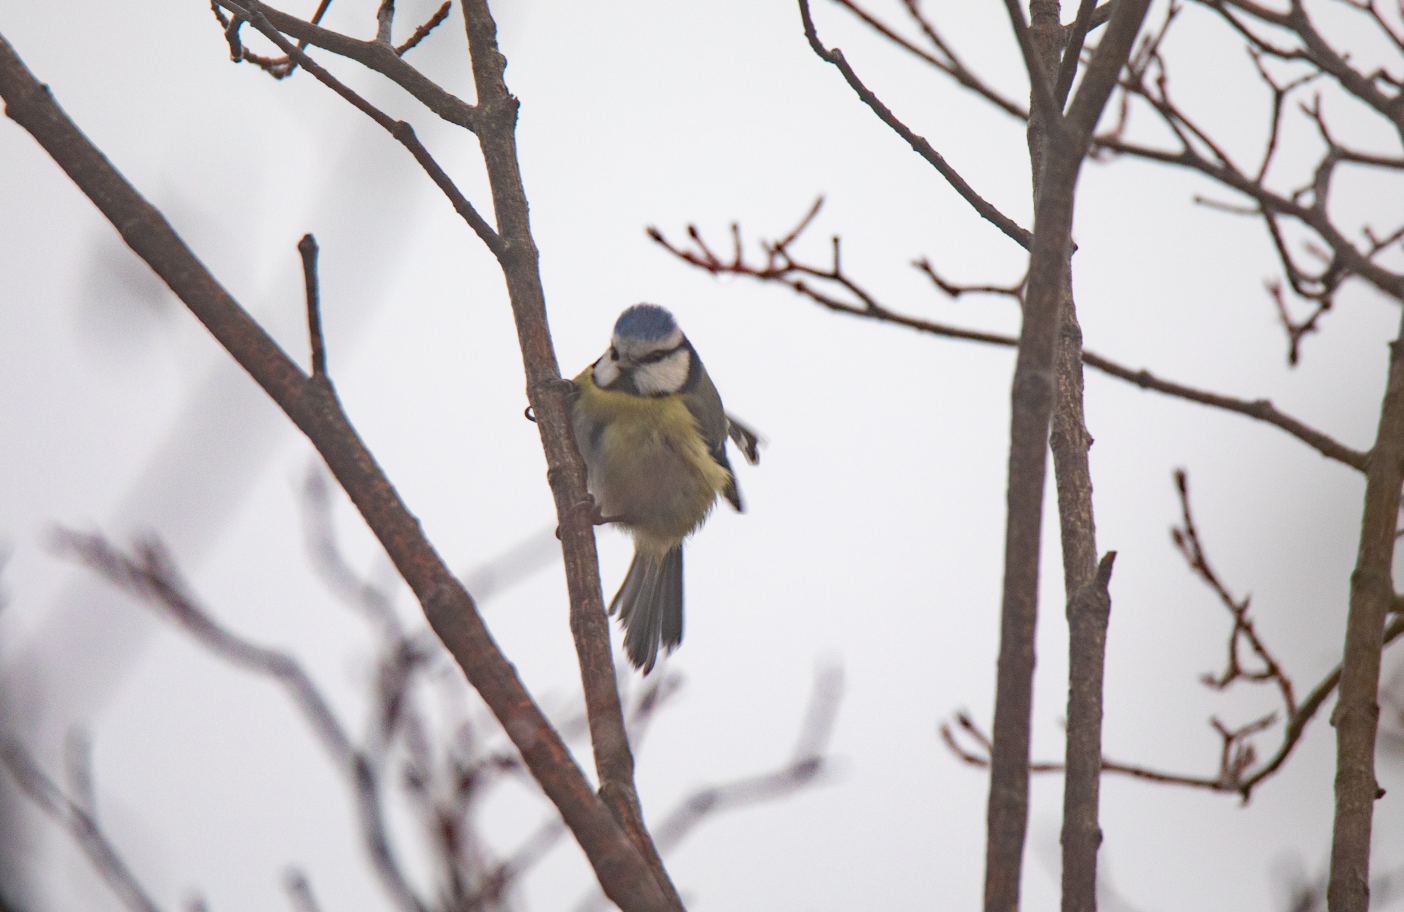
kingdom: Animalia
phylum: Chordata
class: Aves
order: Passeriformes
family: Paridae
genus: Cyanistes
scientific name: Cyanistes caeruleus
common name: Eurasian blue tit
